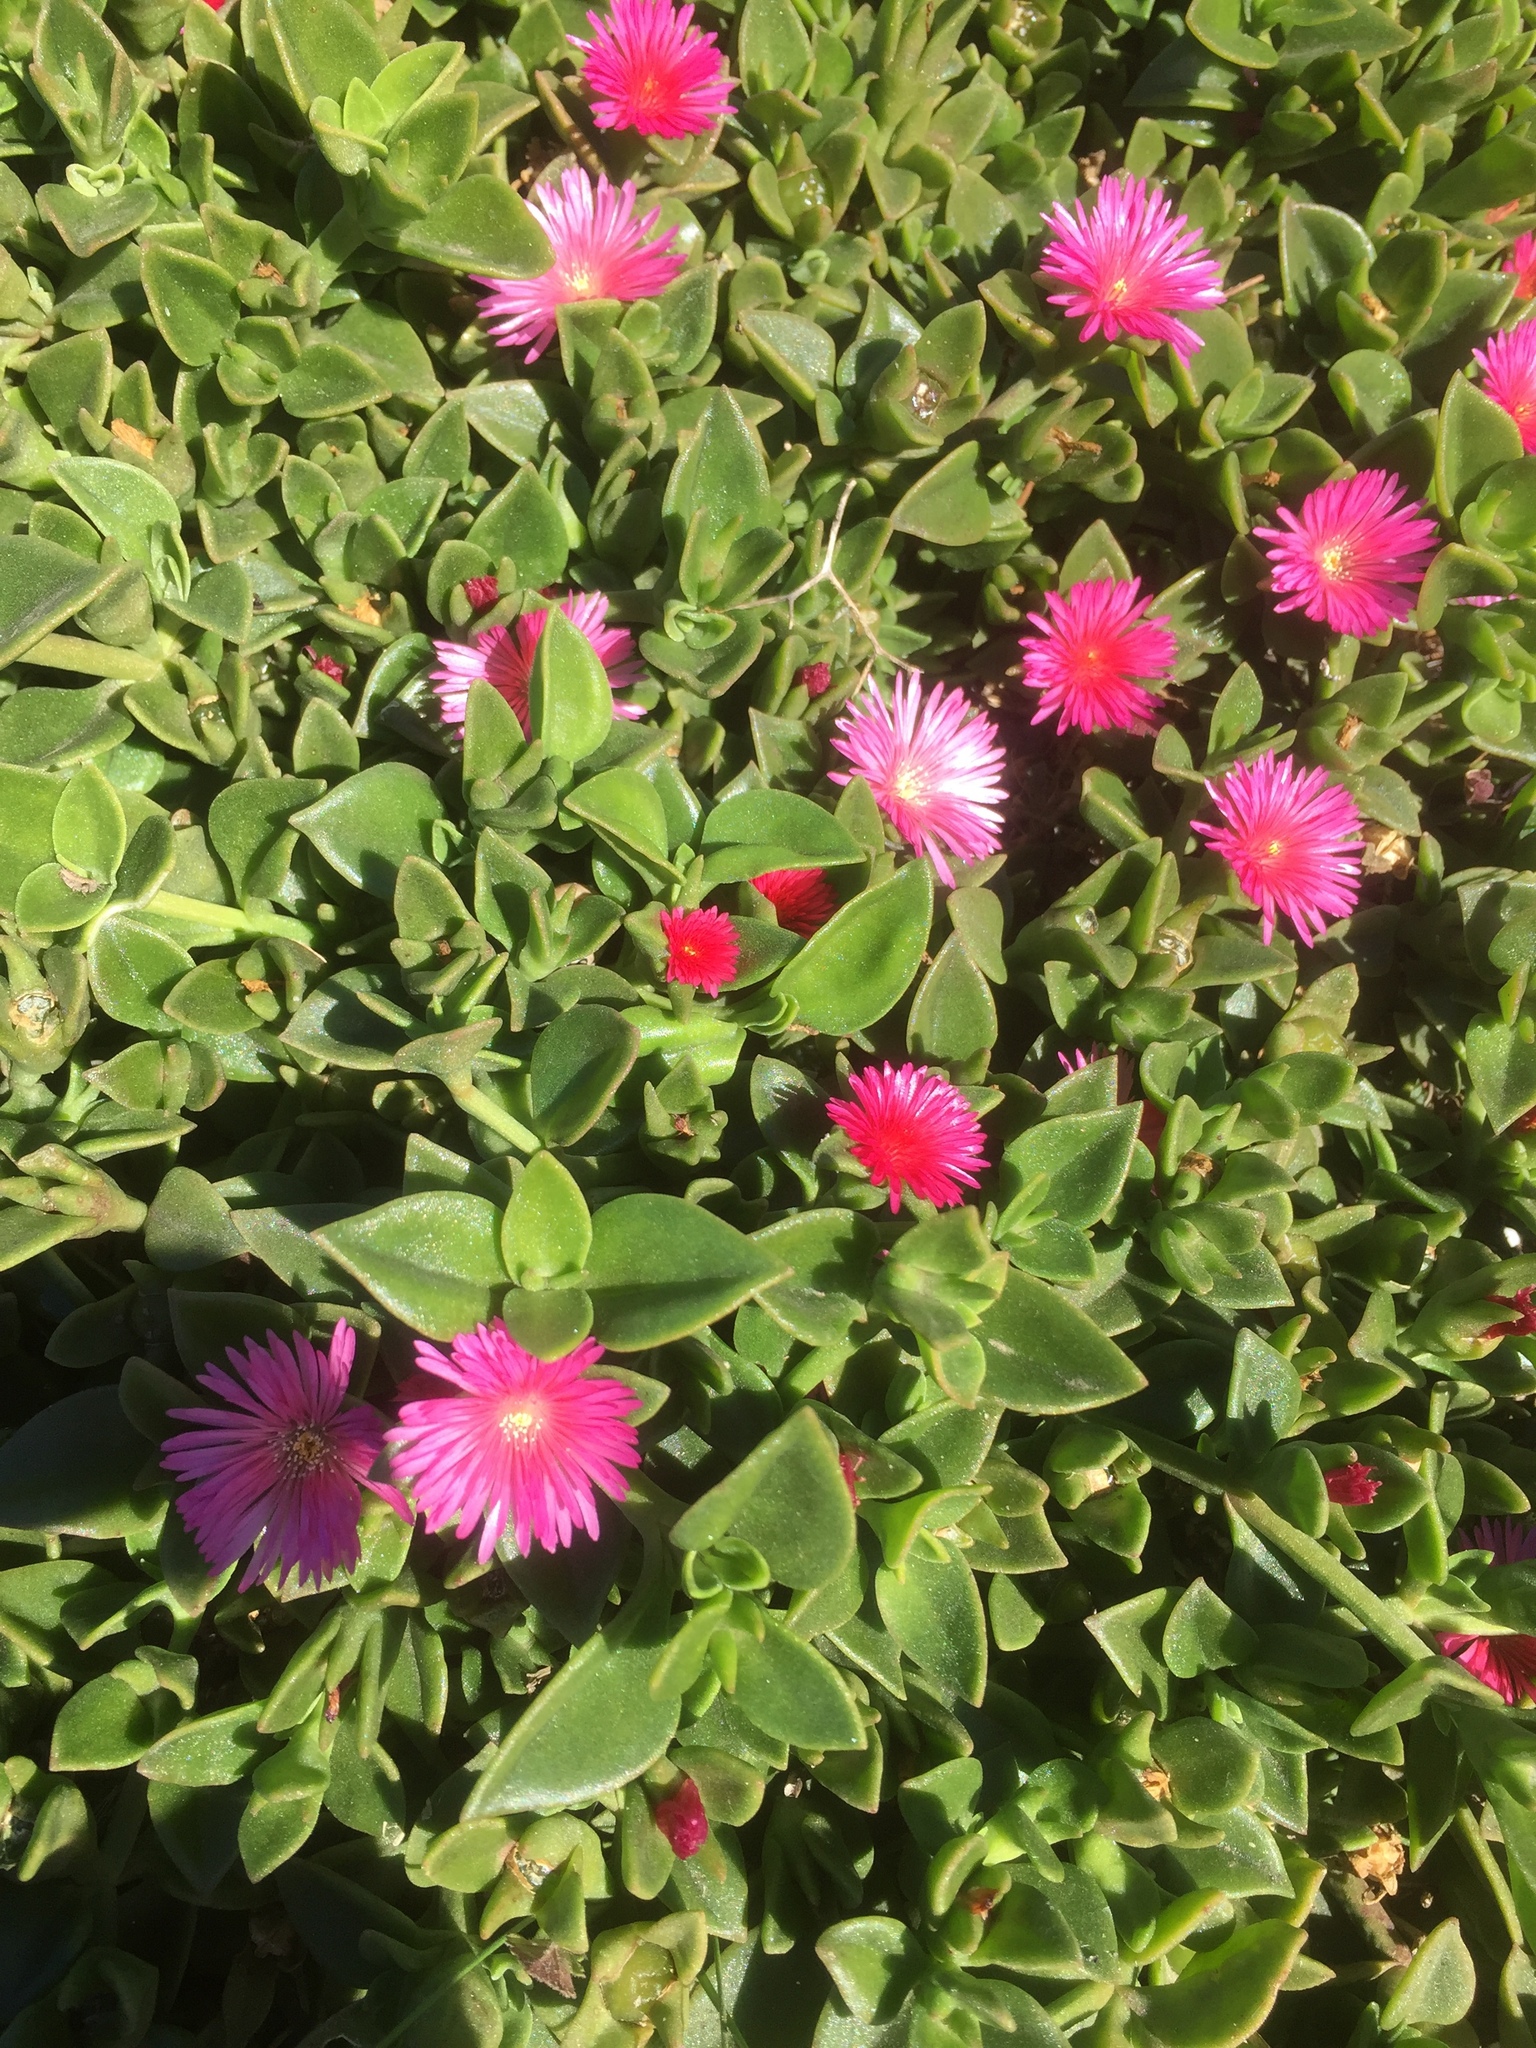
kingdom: Plantae
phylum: Tracheophyta
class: Magnoliopsida
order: Caryophyllales
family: Aizoaceae
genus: Mesembryanthemum
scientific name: Mesembryanthemum cordifolium
